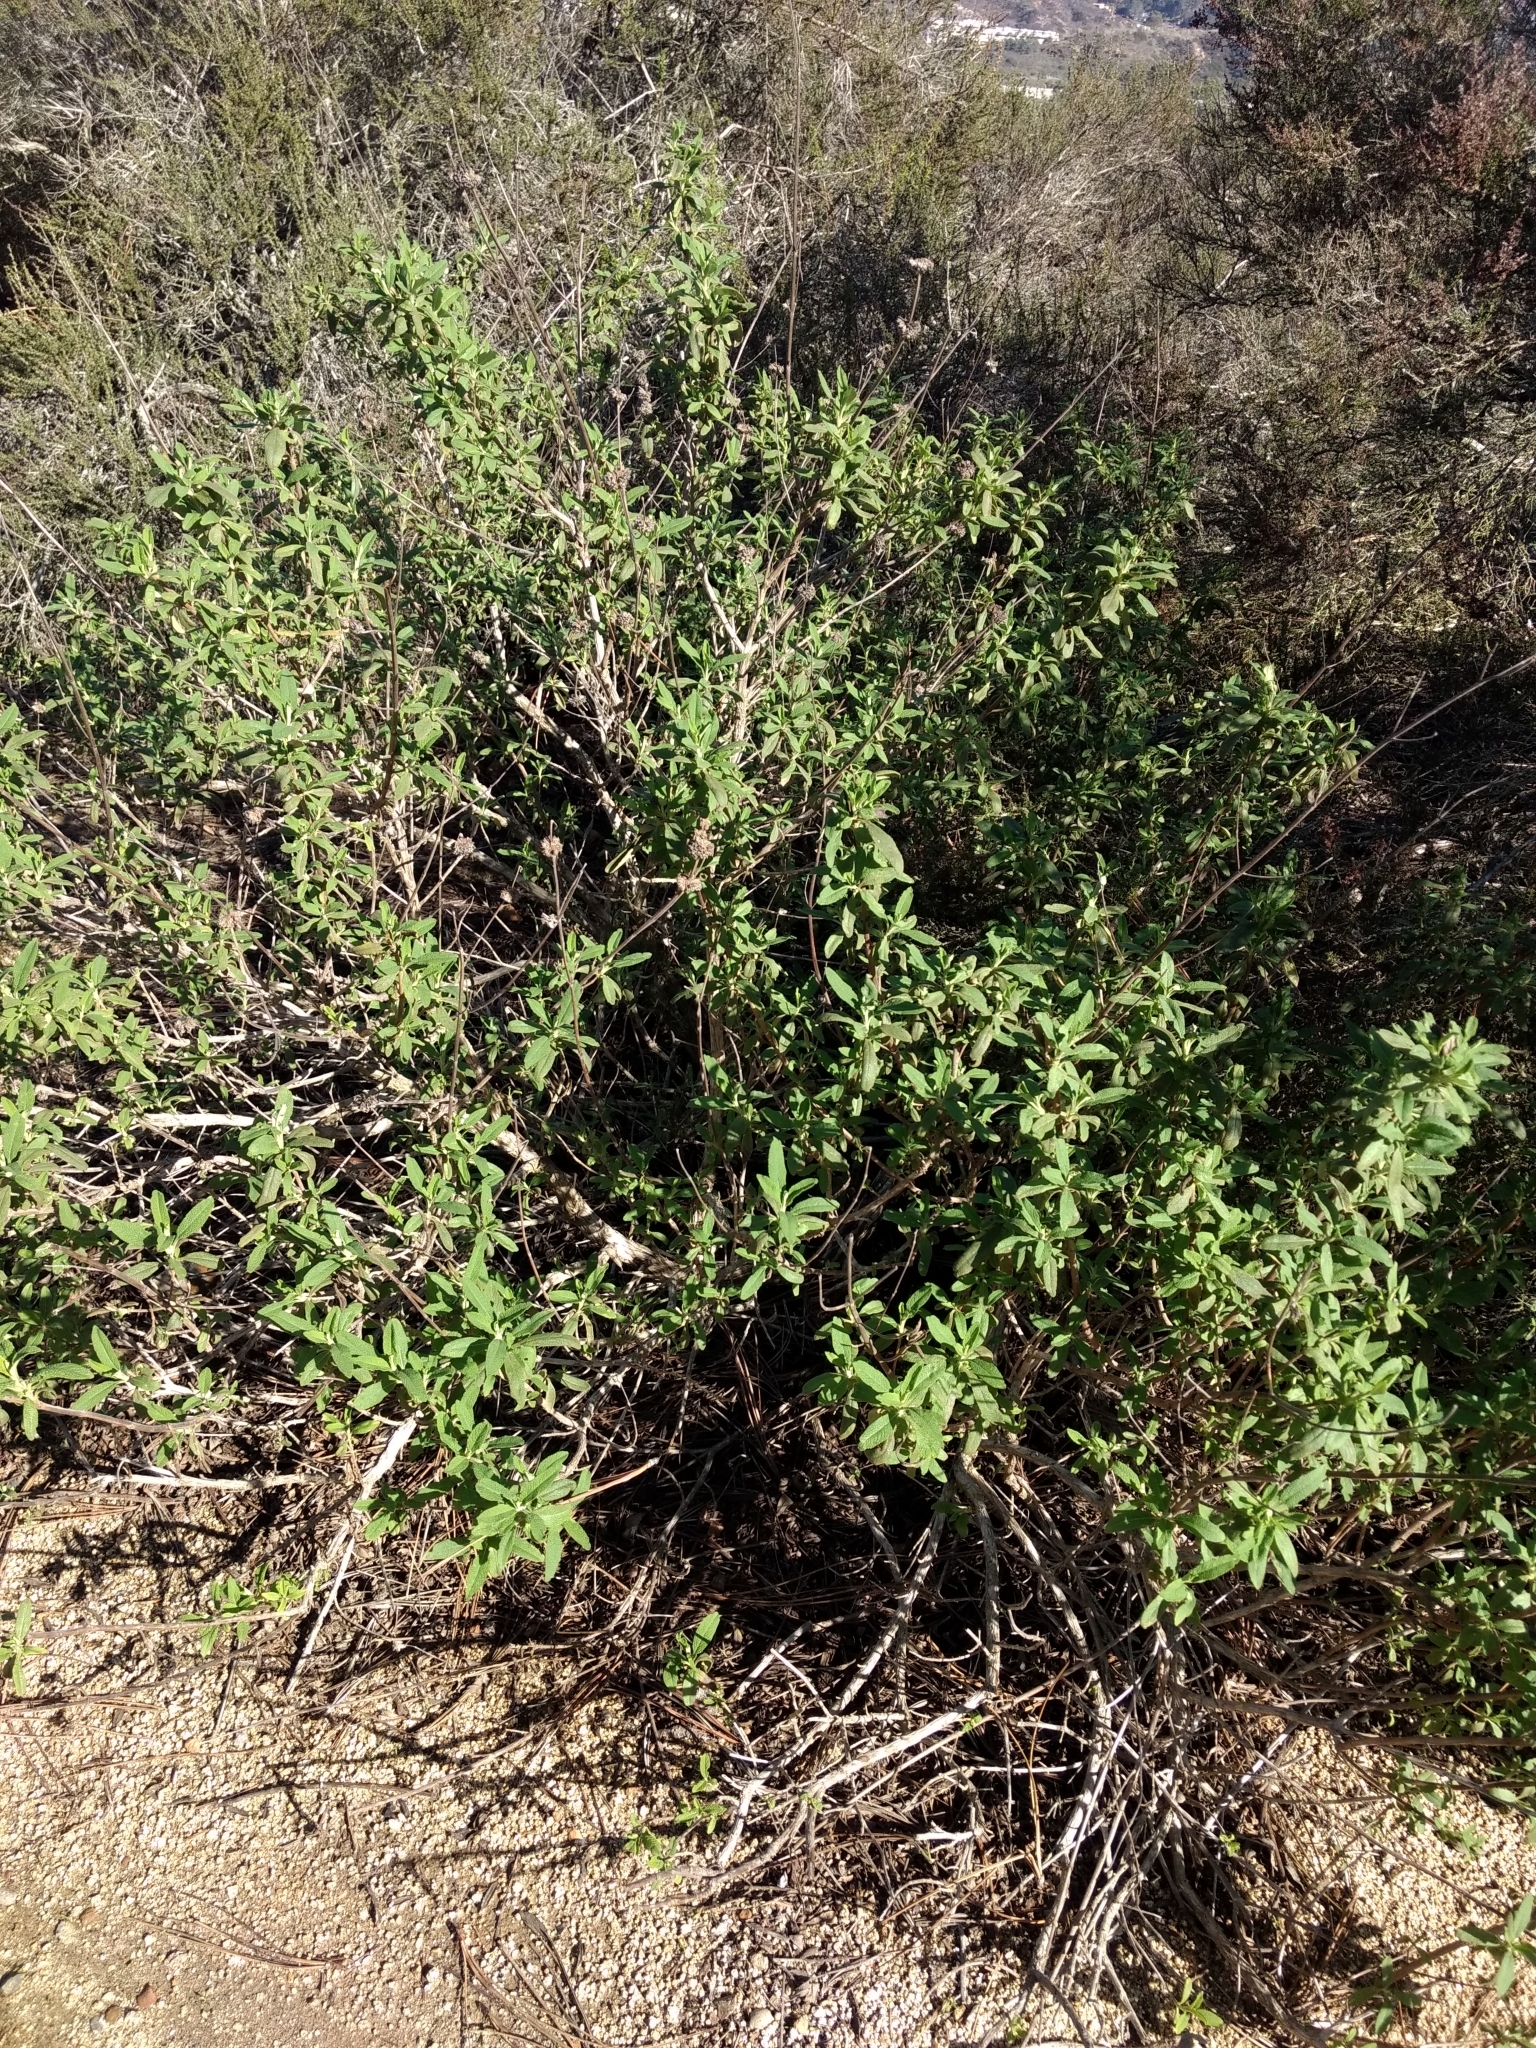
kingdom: Plantae
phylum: Tracheophyta
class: Magnoliopsida
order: Lamiales
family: Lamiaceae
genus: Salvia
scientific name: Salvia mellifera
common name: Black sage
